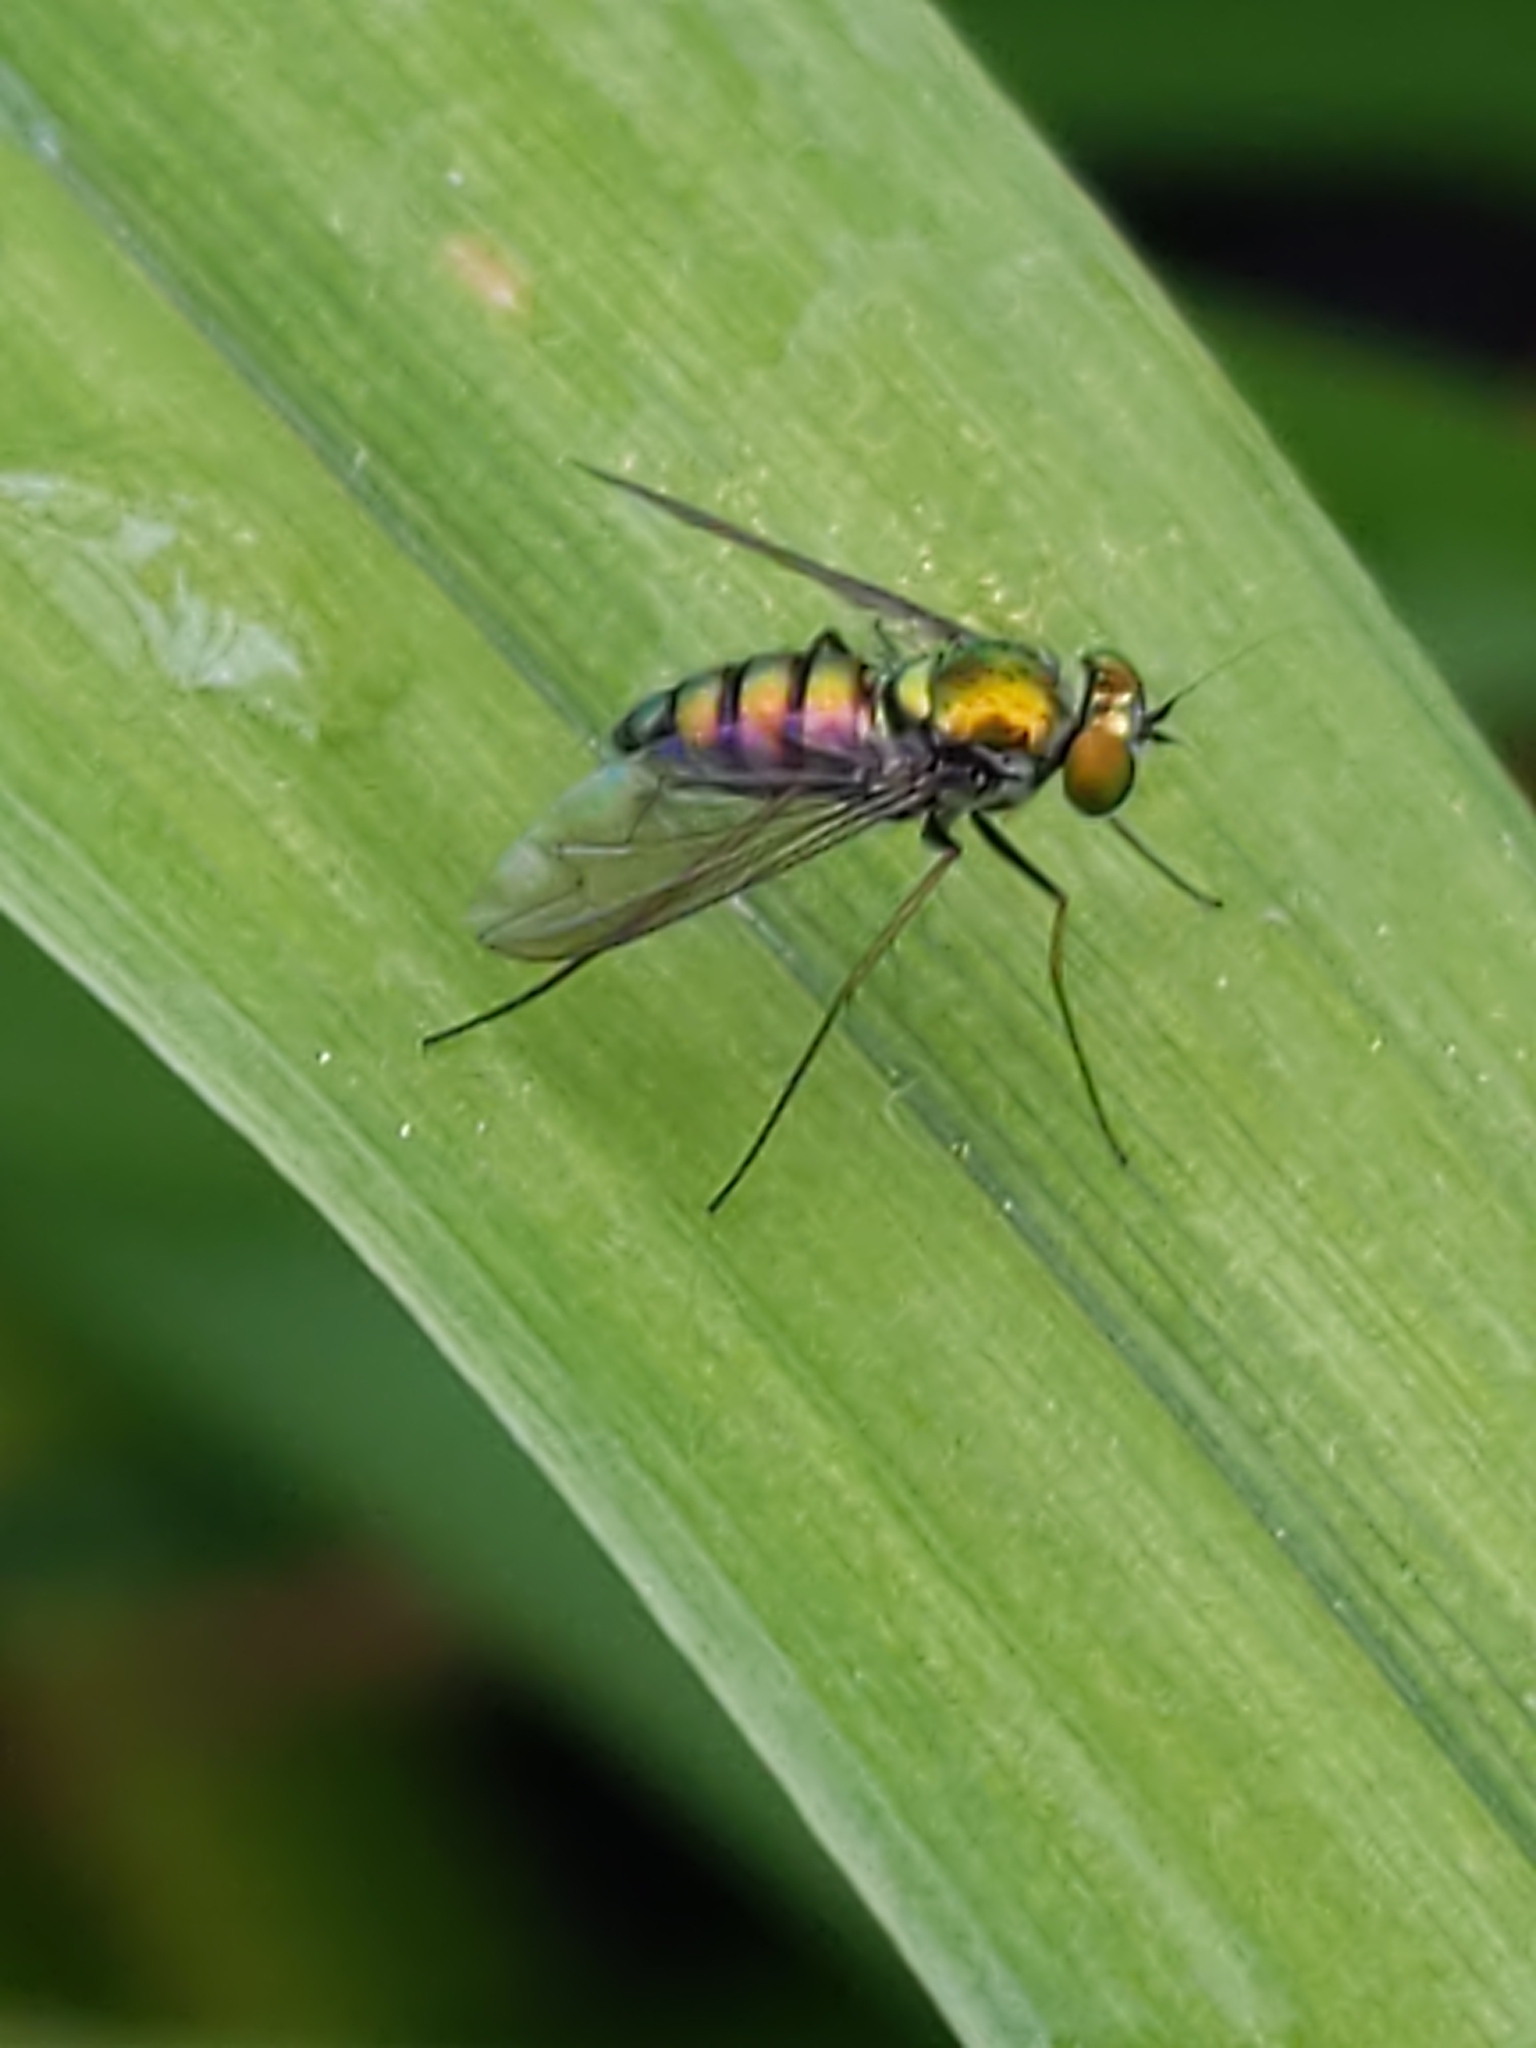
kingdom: Animalia
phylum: Arthropoda
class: Insecta
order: Diptera
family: Dolichopodidae
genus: Condylostylus
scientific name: Condylostylus
